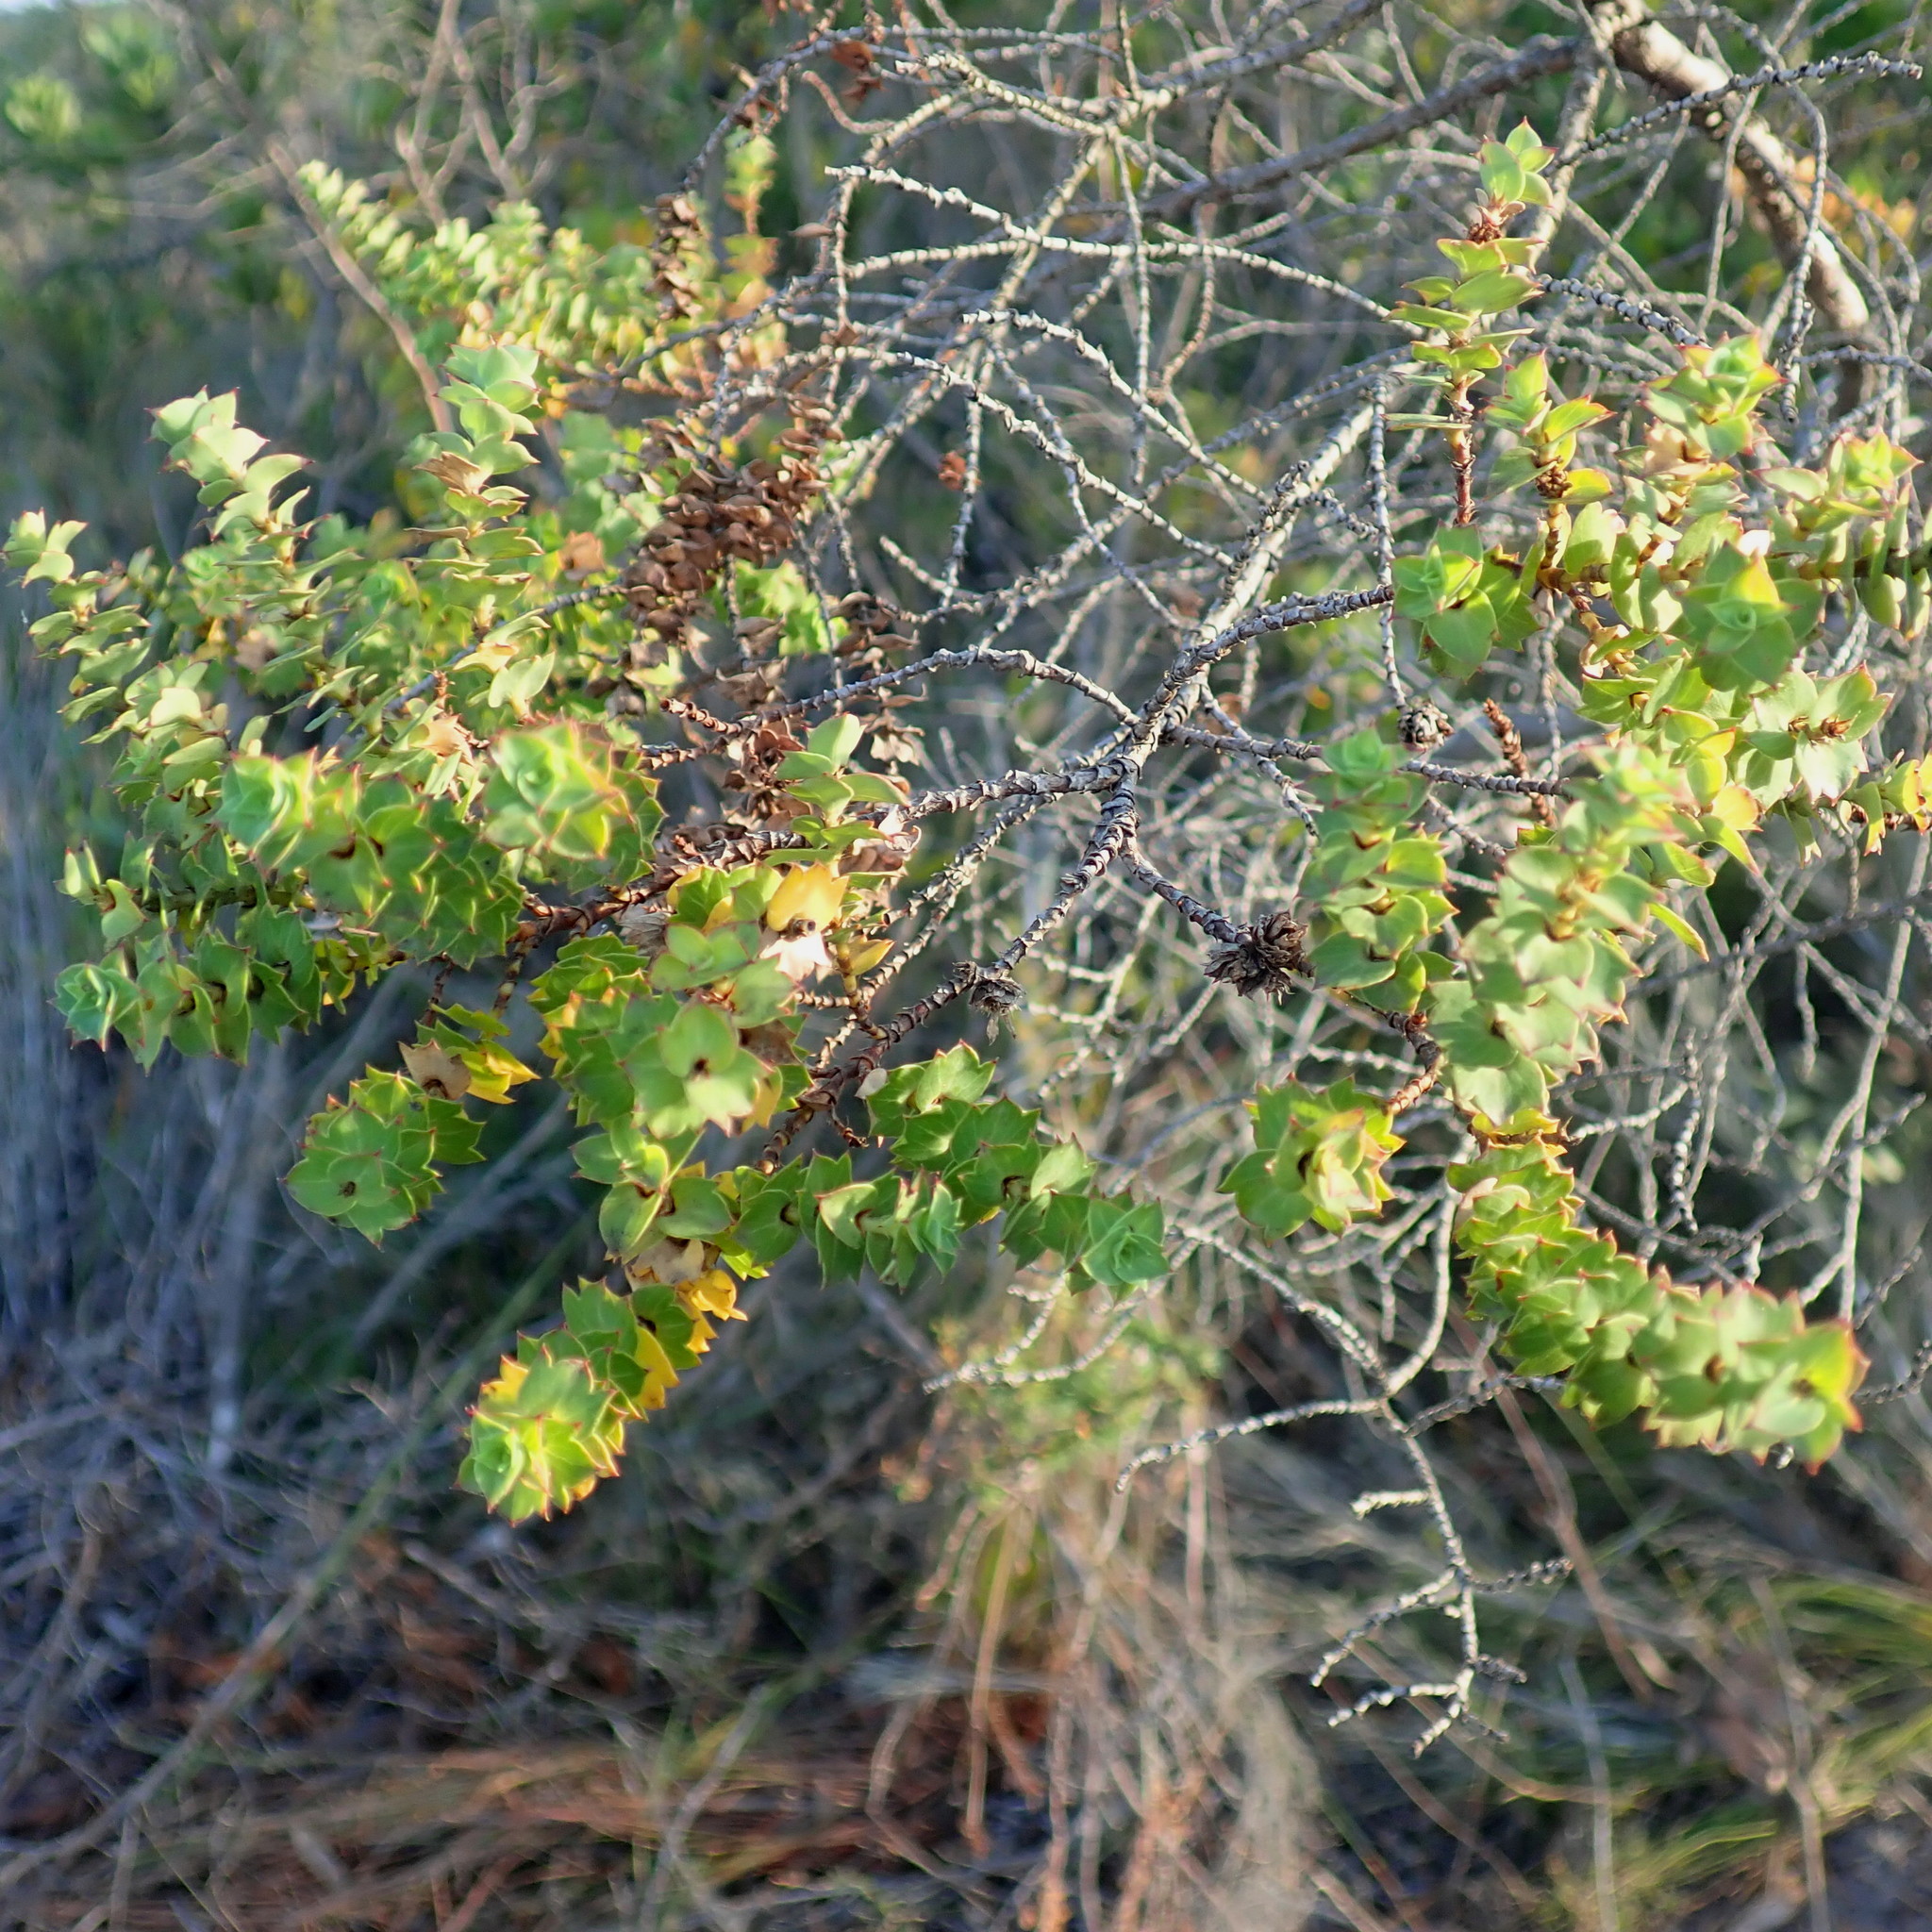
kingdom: Plantae
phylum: Tracheophyta
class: Magnoliopsida
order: Rosales
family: Rosaceae
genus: Cliffortia
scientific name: Cliffortia schlechteri
